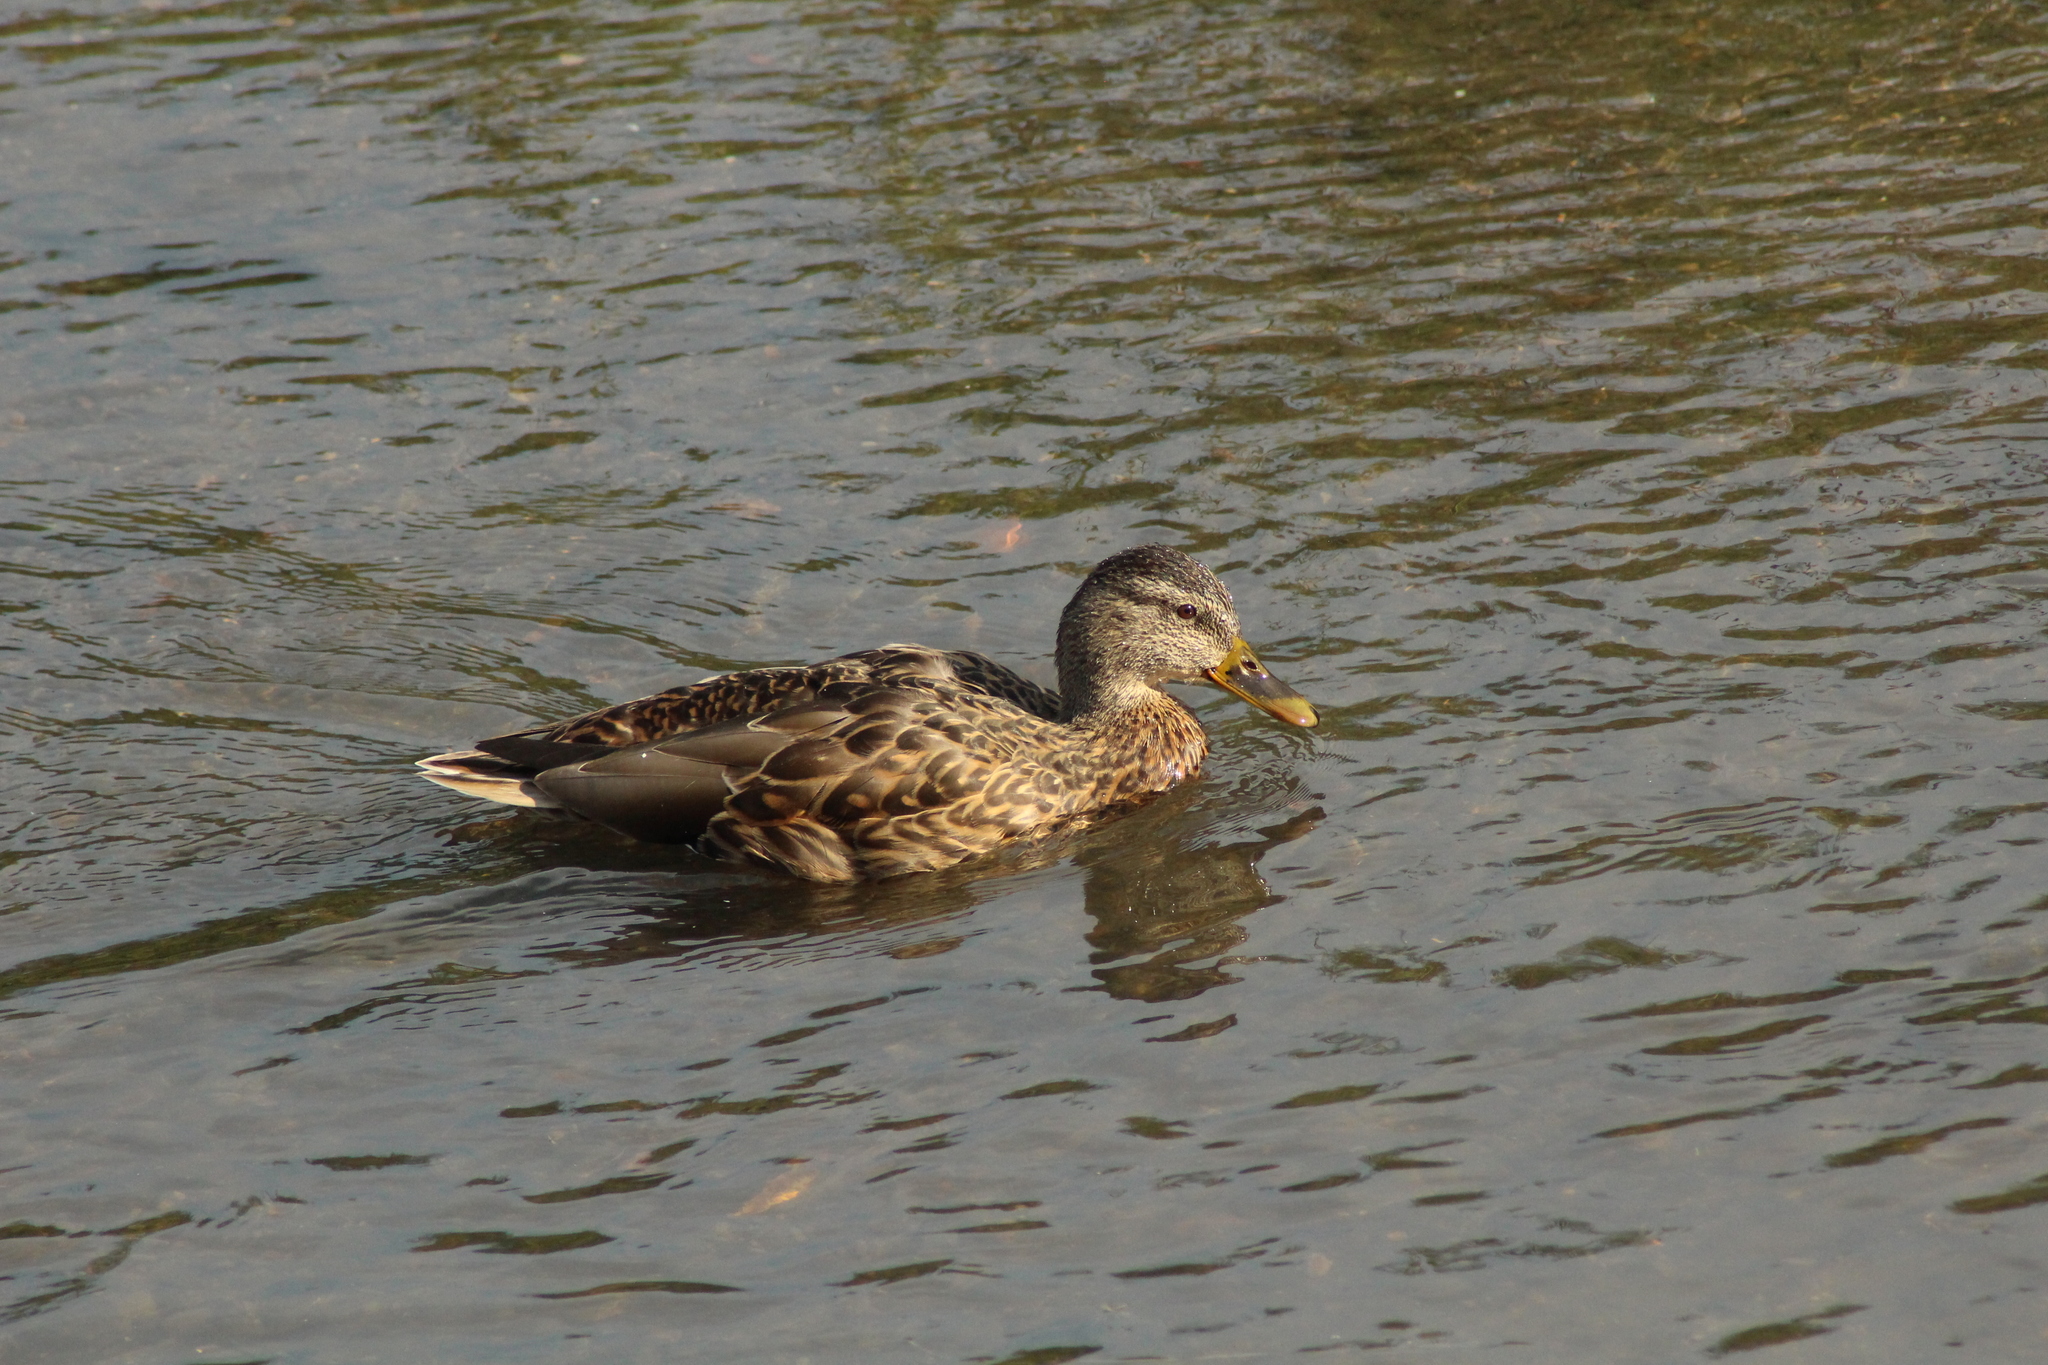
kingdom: Animalia
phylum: Chordata
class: Aves
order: Anseriformes
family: Anatidae
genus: Anas
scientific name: Anas platyrhynchos
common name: Mallard
